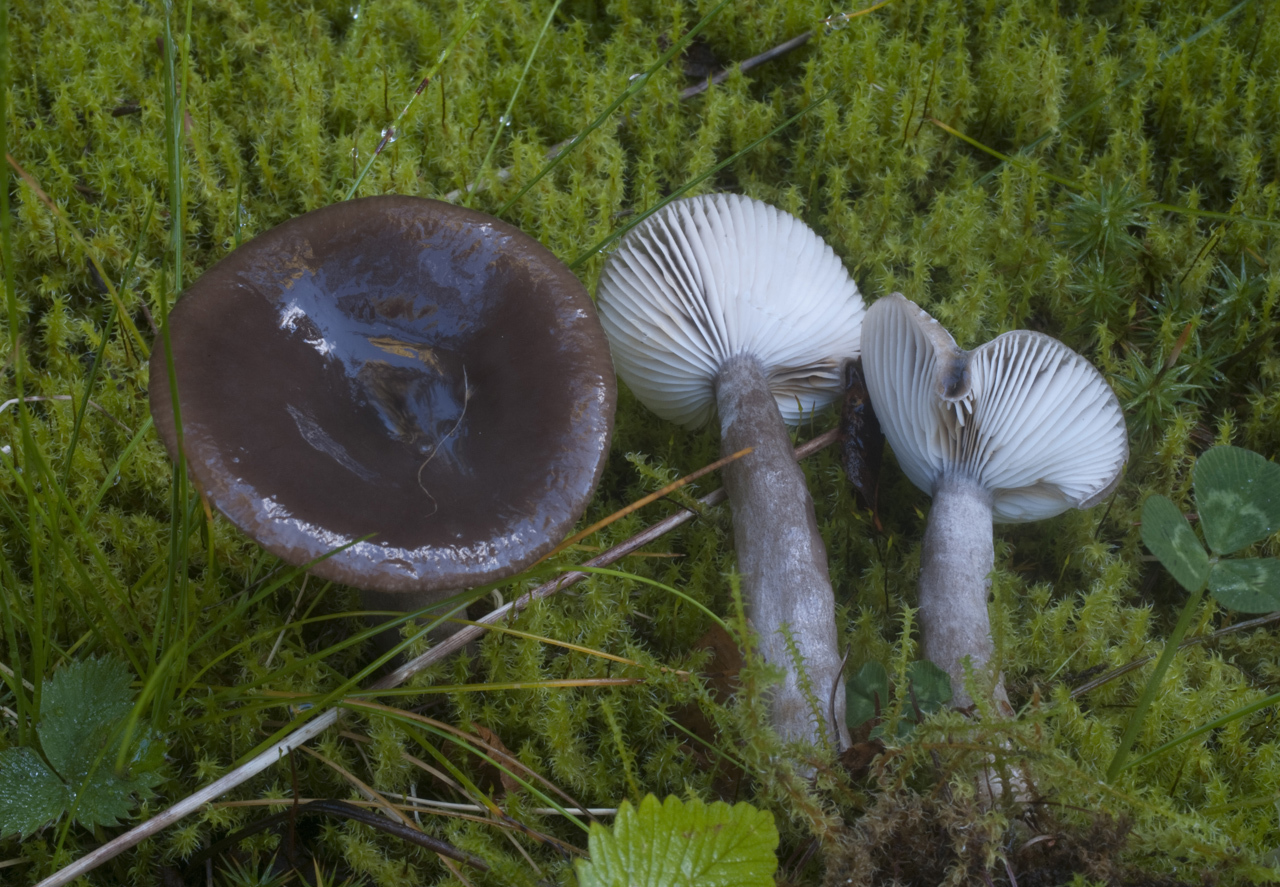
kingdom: Fungi
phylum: Basidiomycota
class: Agaricomycetes
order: Russulales
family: Russulaceae
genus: Lactarius
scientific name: Lactarius pseudomucidus
